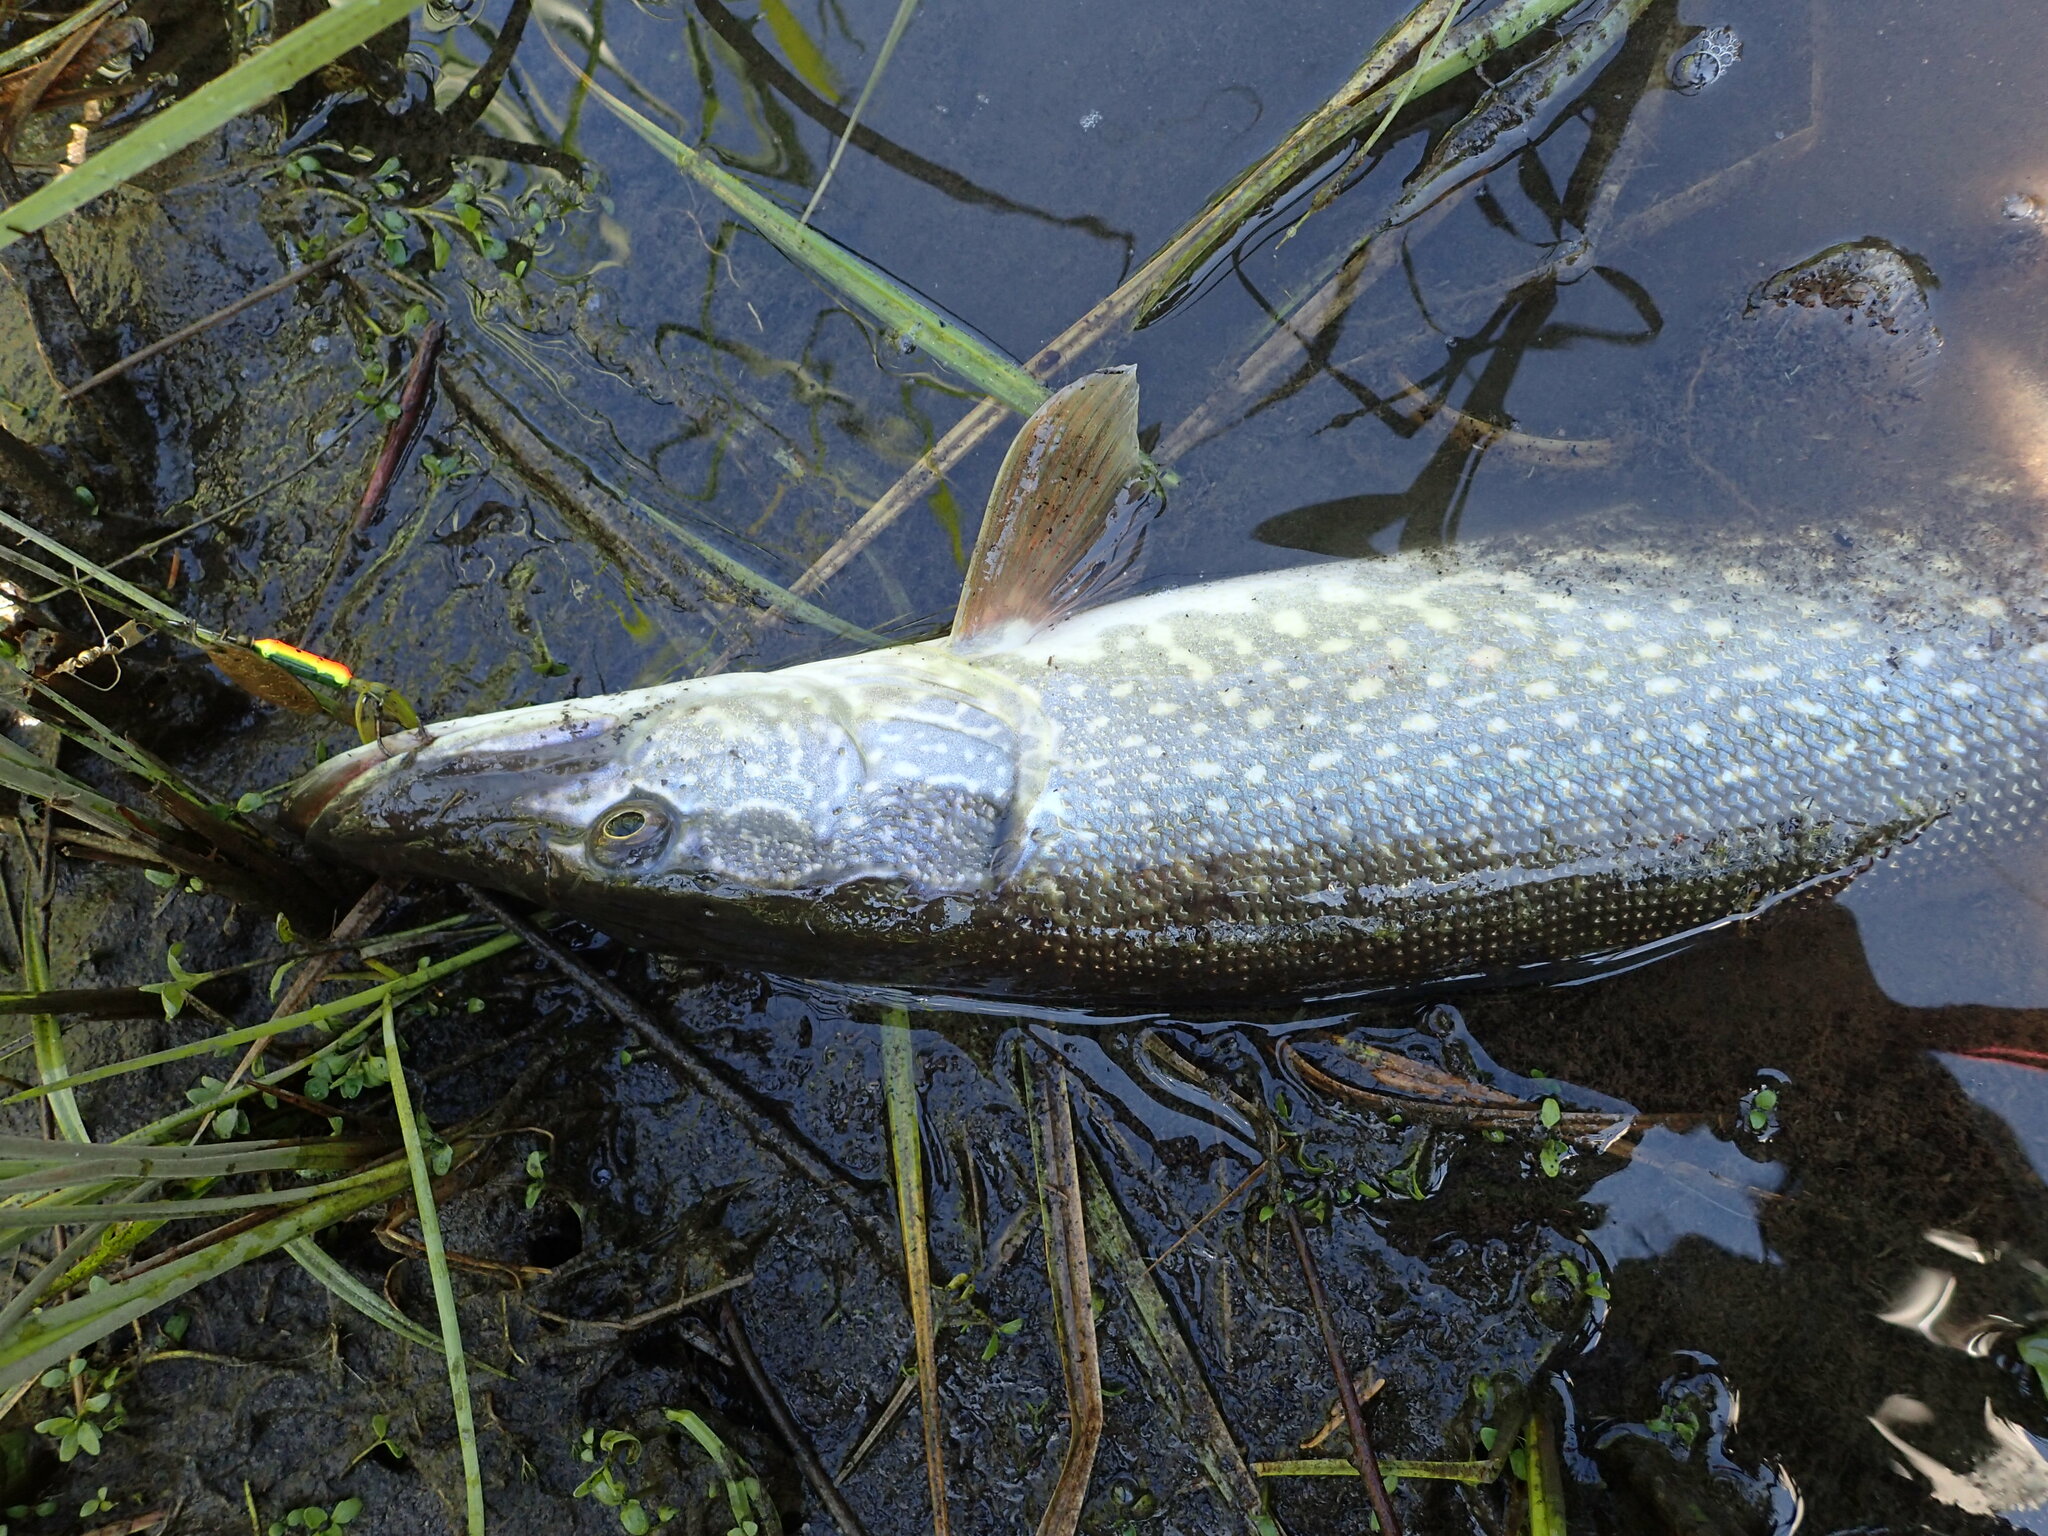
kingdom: Animalia
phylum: Chordata
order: Esociformes
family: Esocidae
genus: Esox
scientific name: Esox lucius
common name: Northern pike
